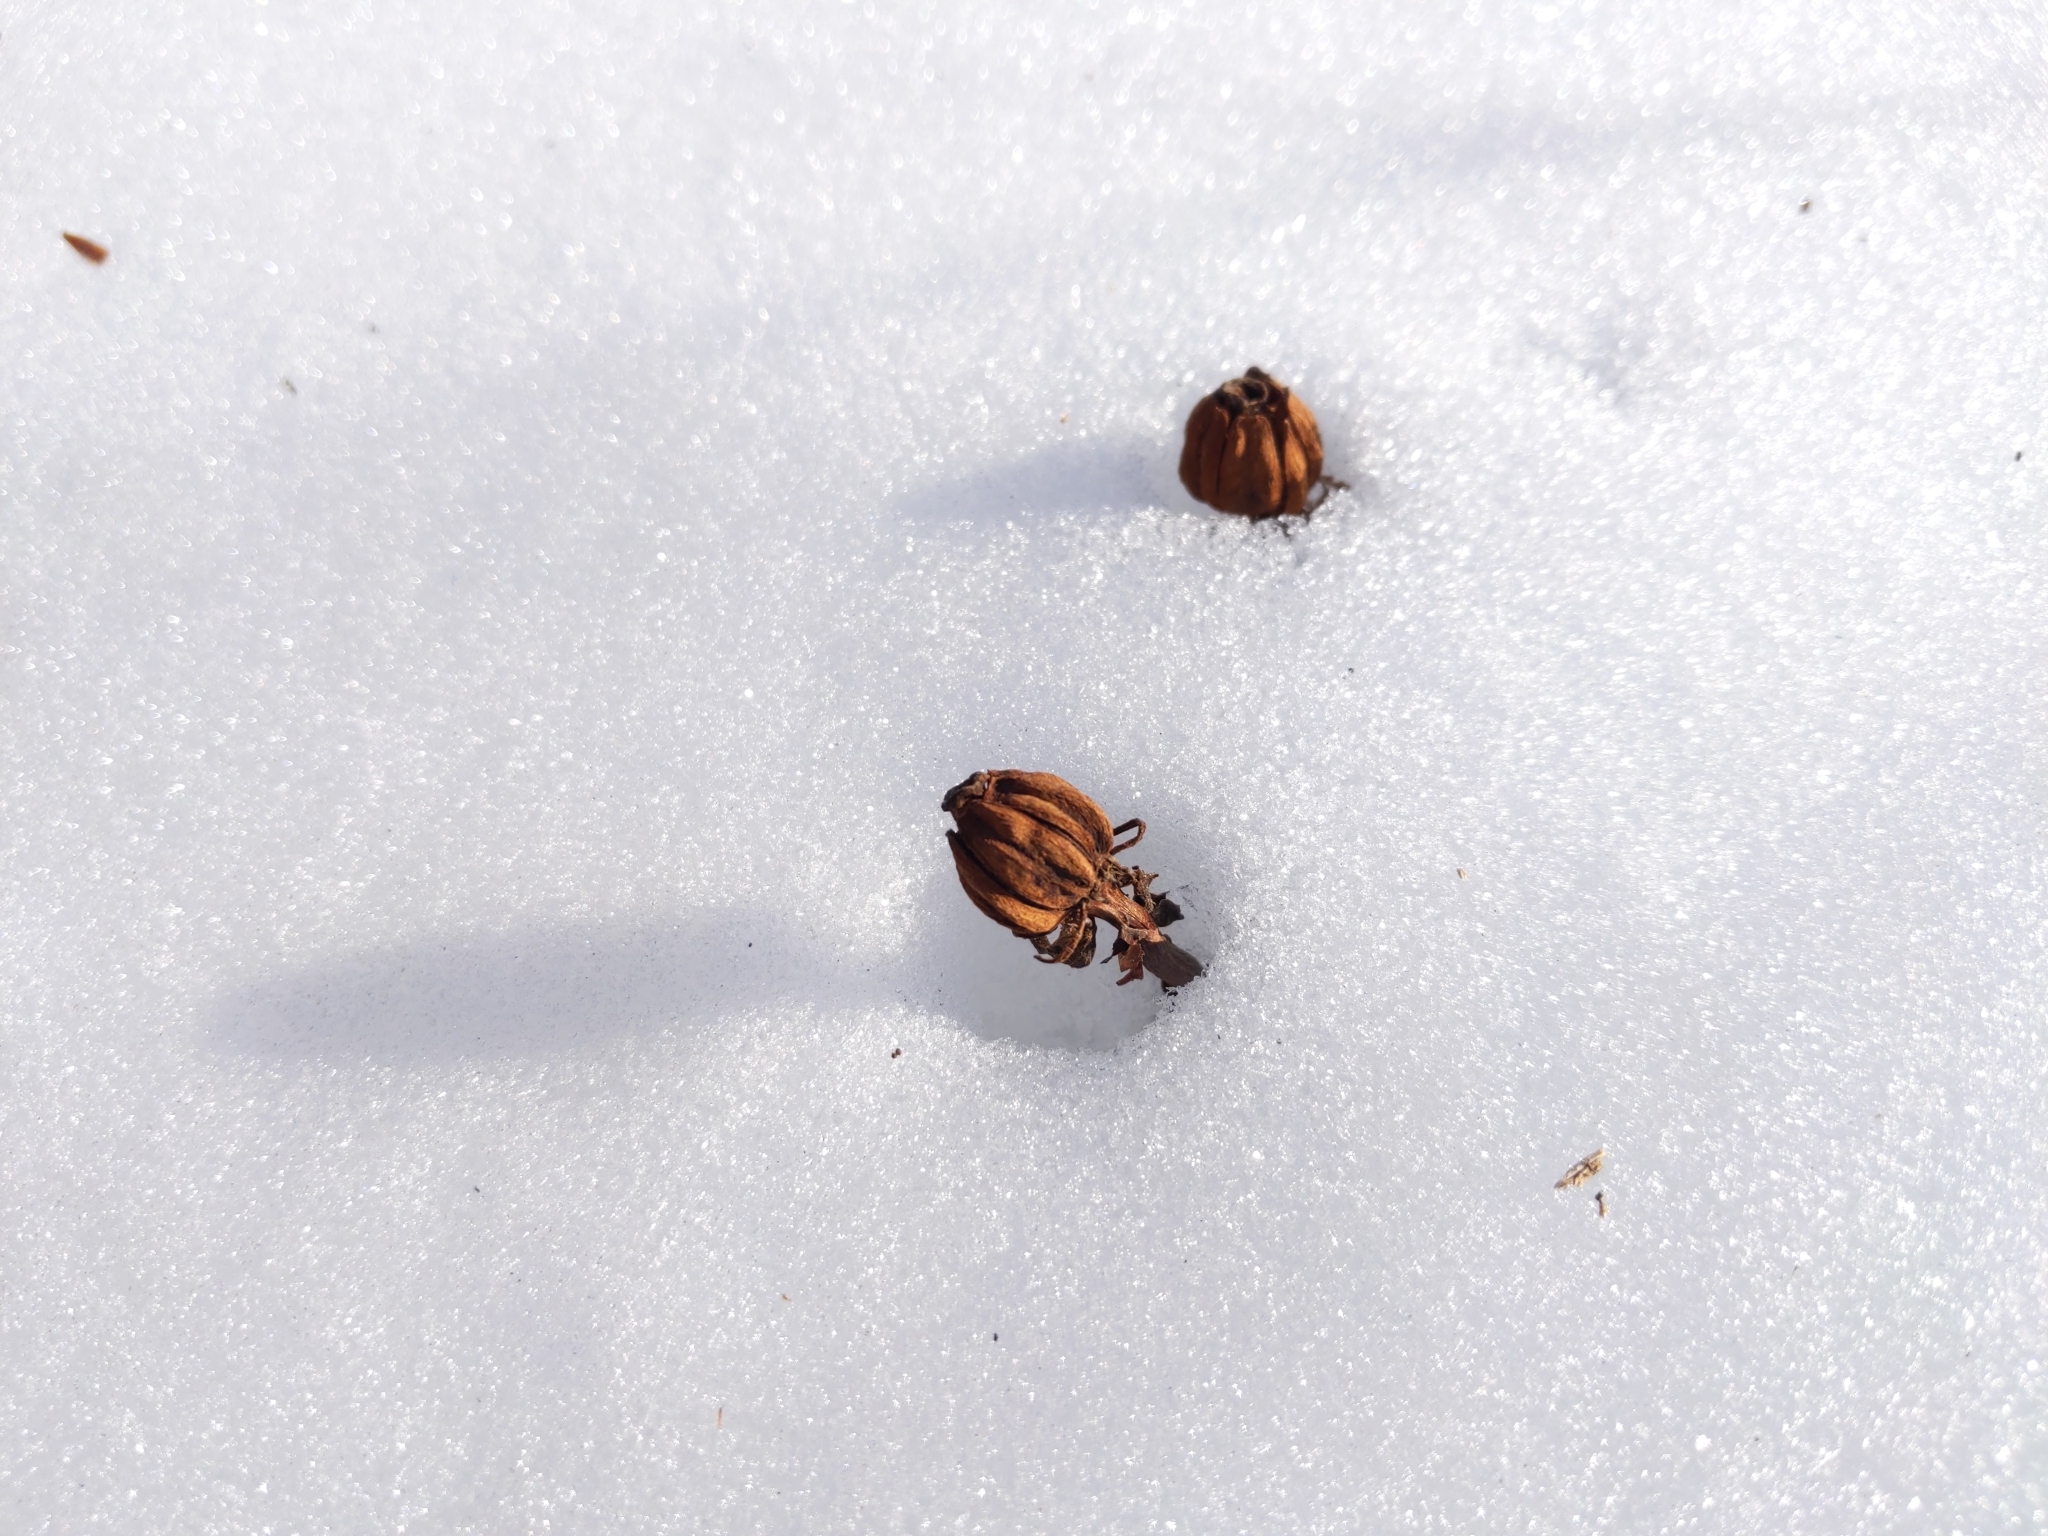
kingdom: Plantae
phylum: Tracheophyta
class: Magnoliopsida
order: Ericales
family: Ericaceae
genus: Monotropa
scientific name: Monotropa uniflora
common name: Convulsion root
